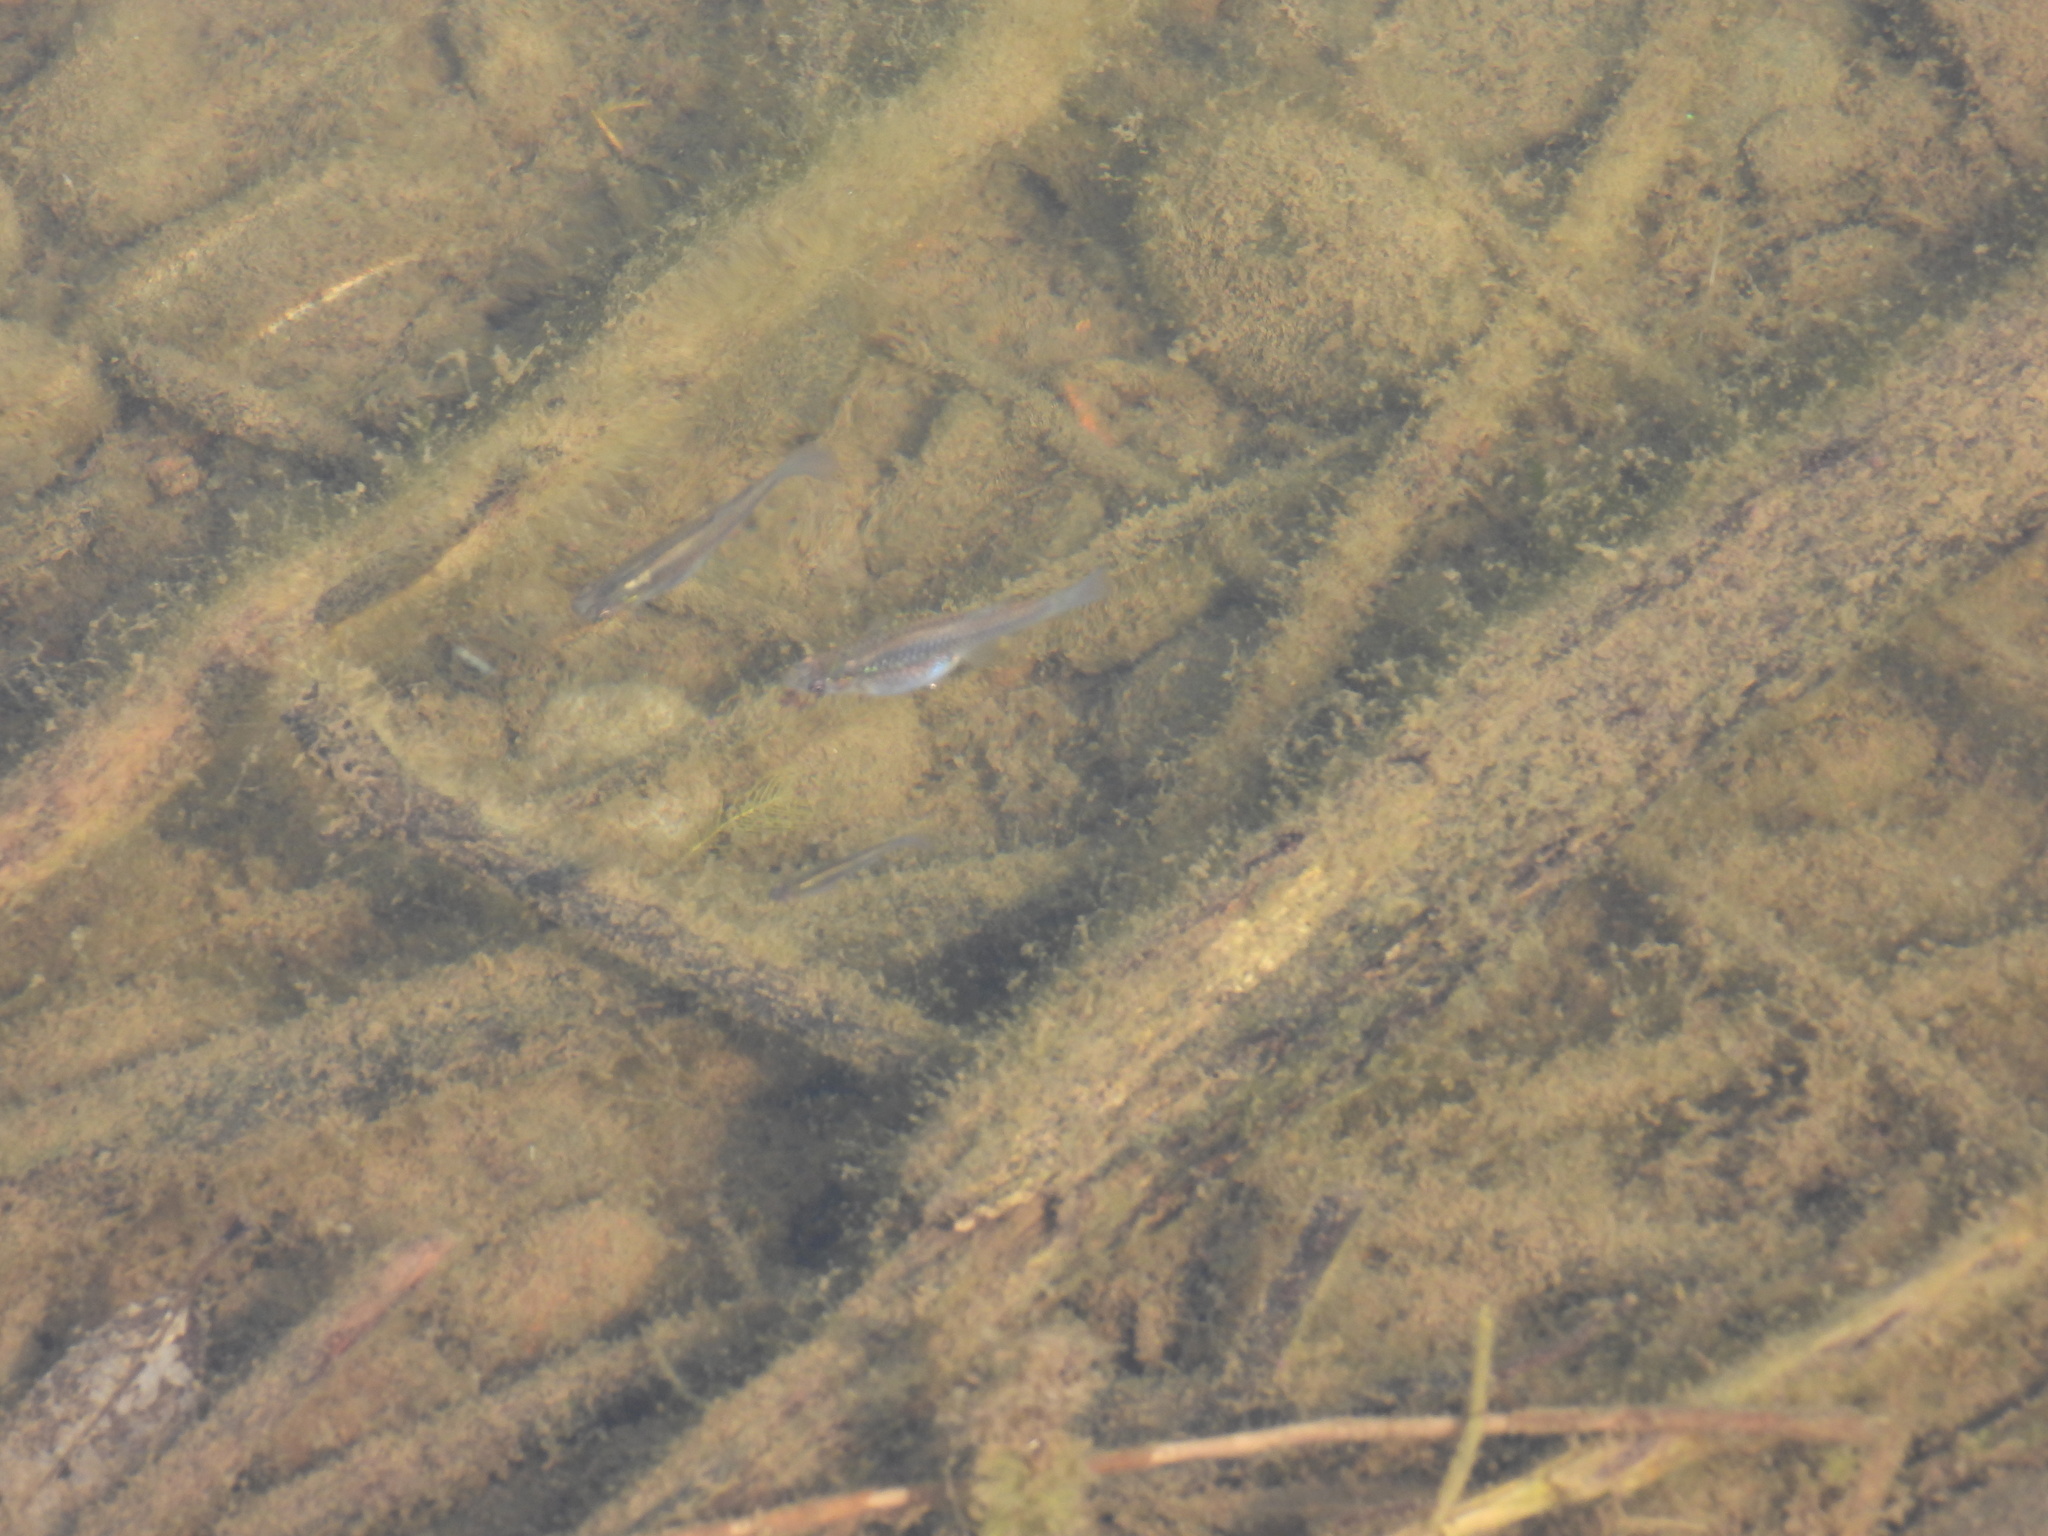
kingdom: Animalia
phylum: Chordata
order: Cyprinodontiformes
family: Poeciliidae
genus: Gambusia
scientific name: Gambusia affinis
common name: Mosquitofish
